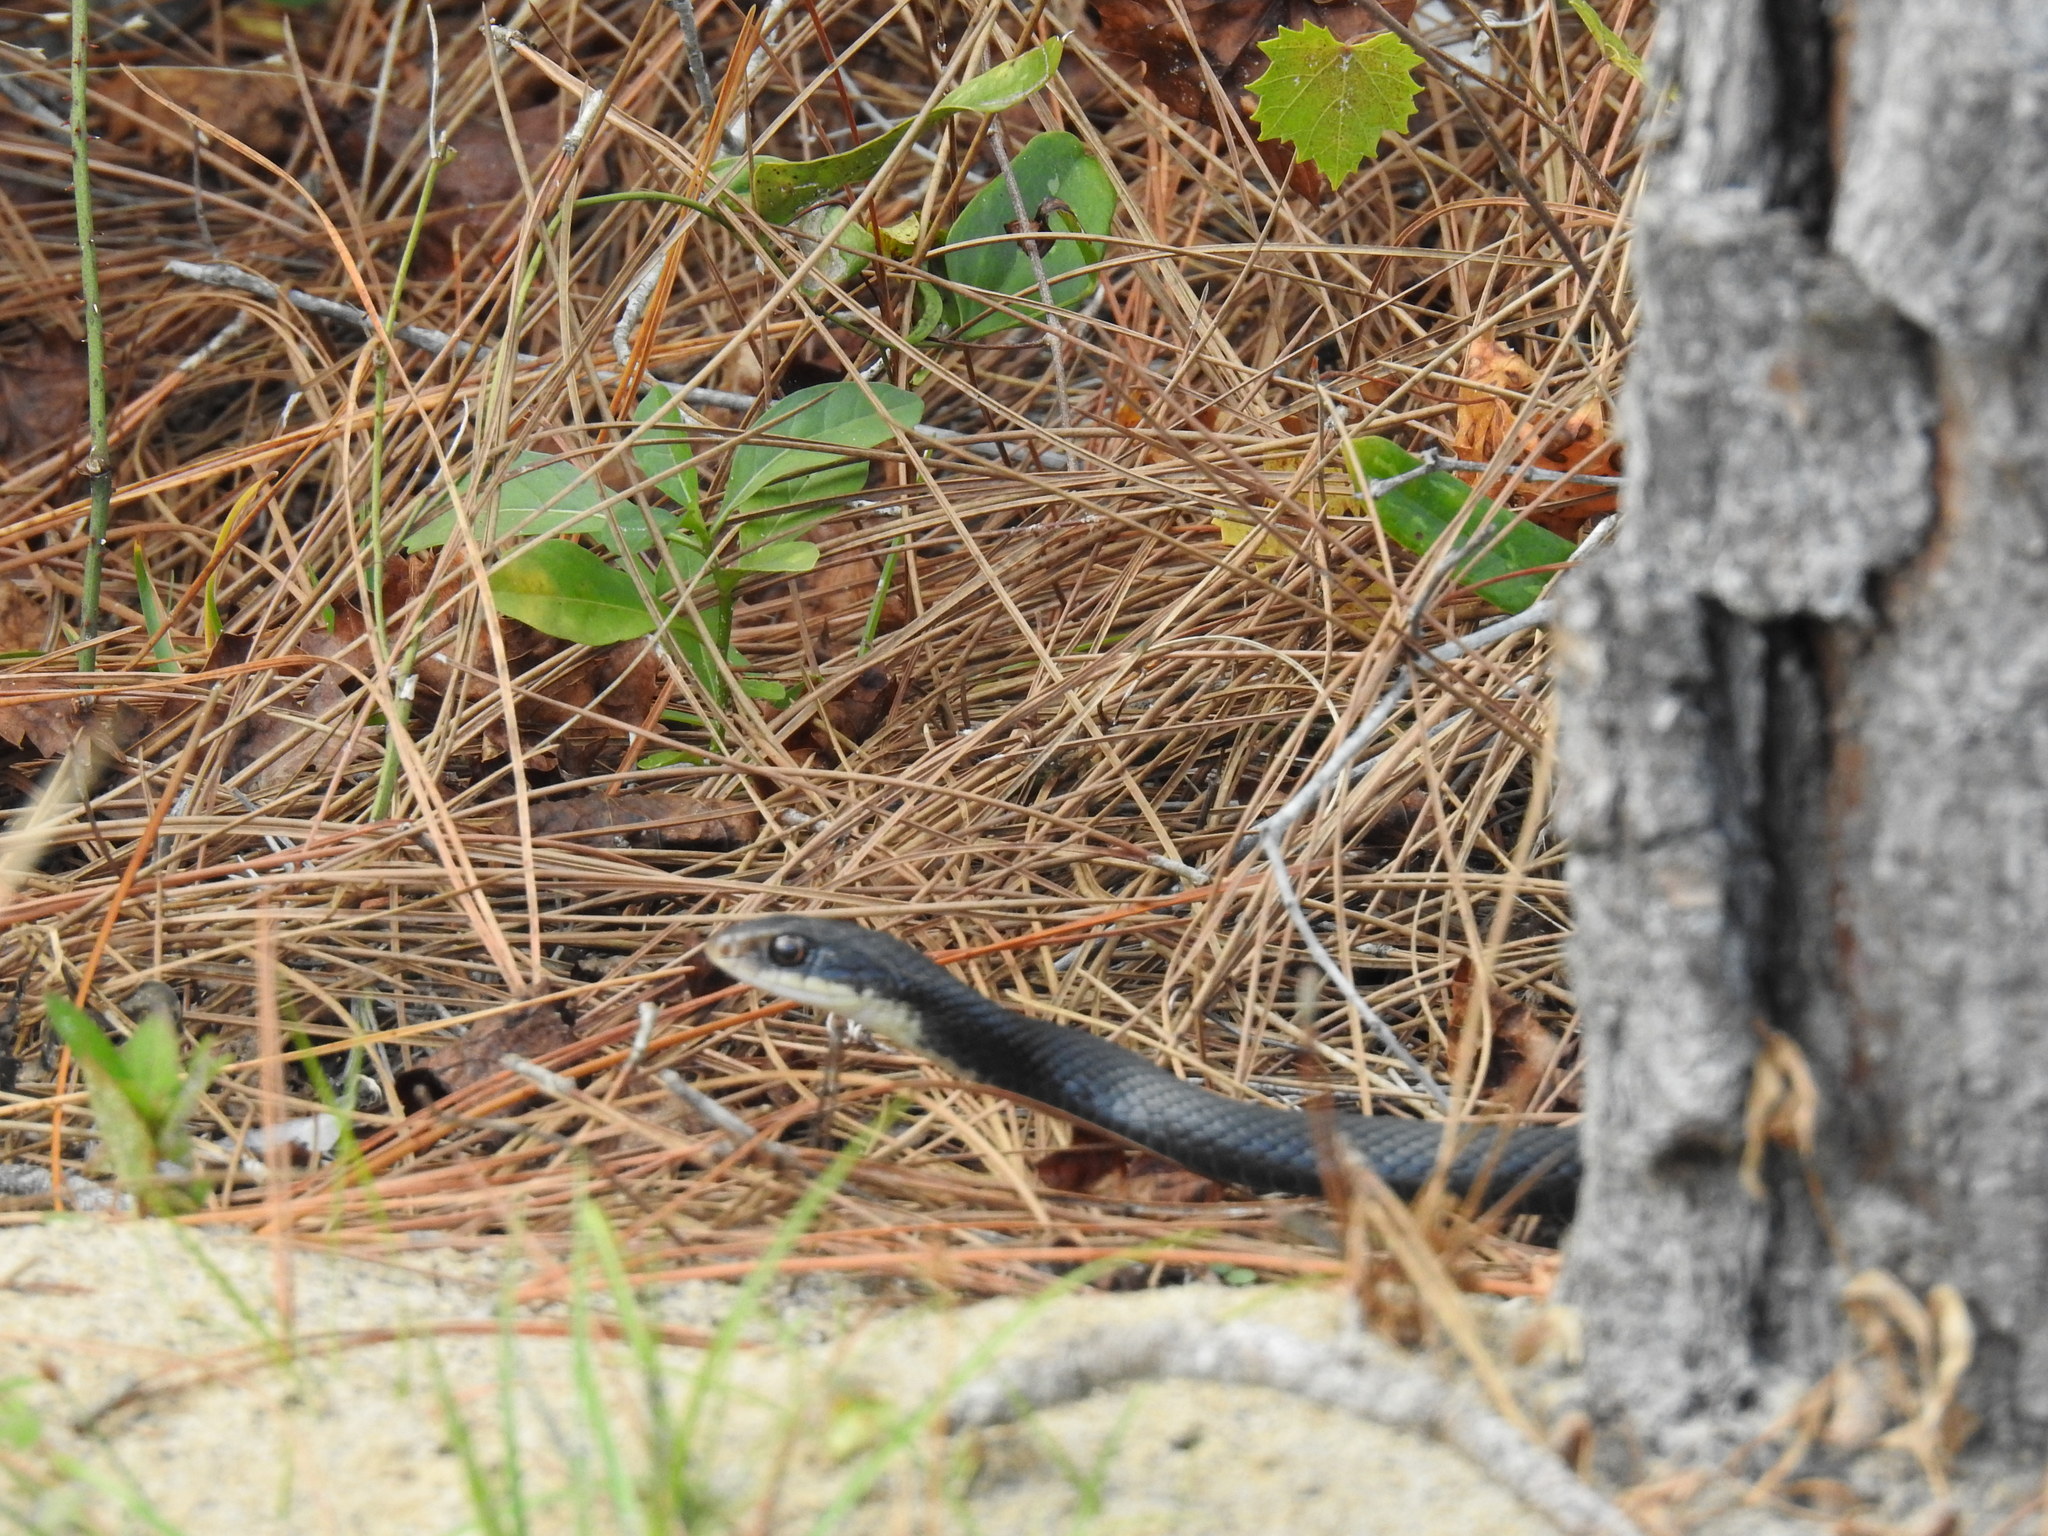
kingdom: Animalia
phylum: Chordata
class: Squamata
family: Colubridae
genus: Coluber
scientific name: Coluber constrictor
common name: Eastern racer
